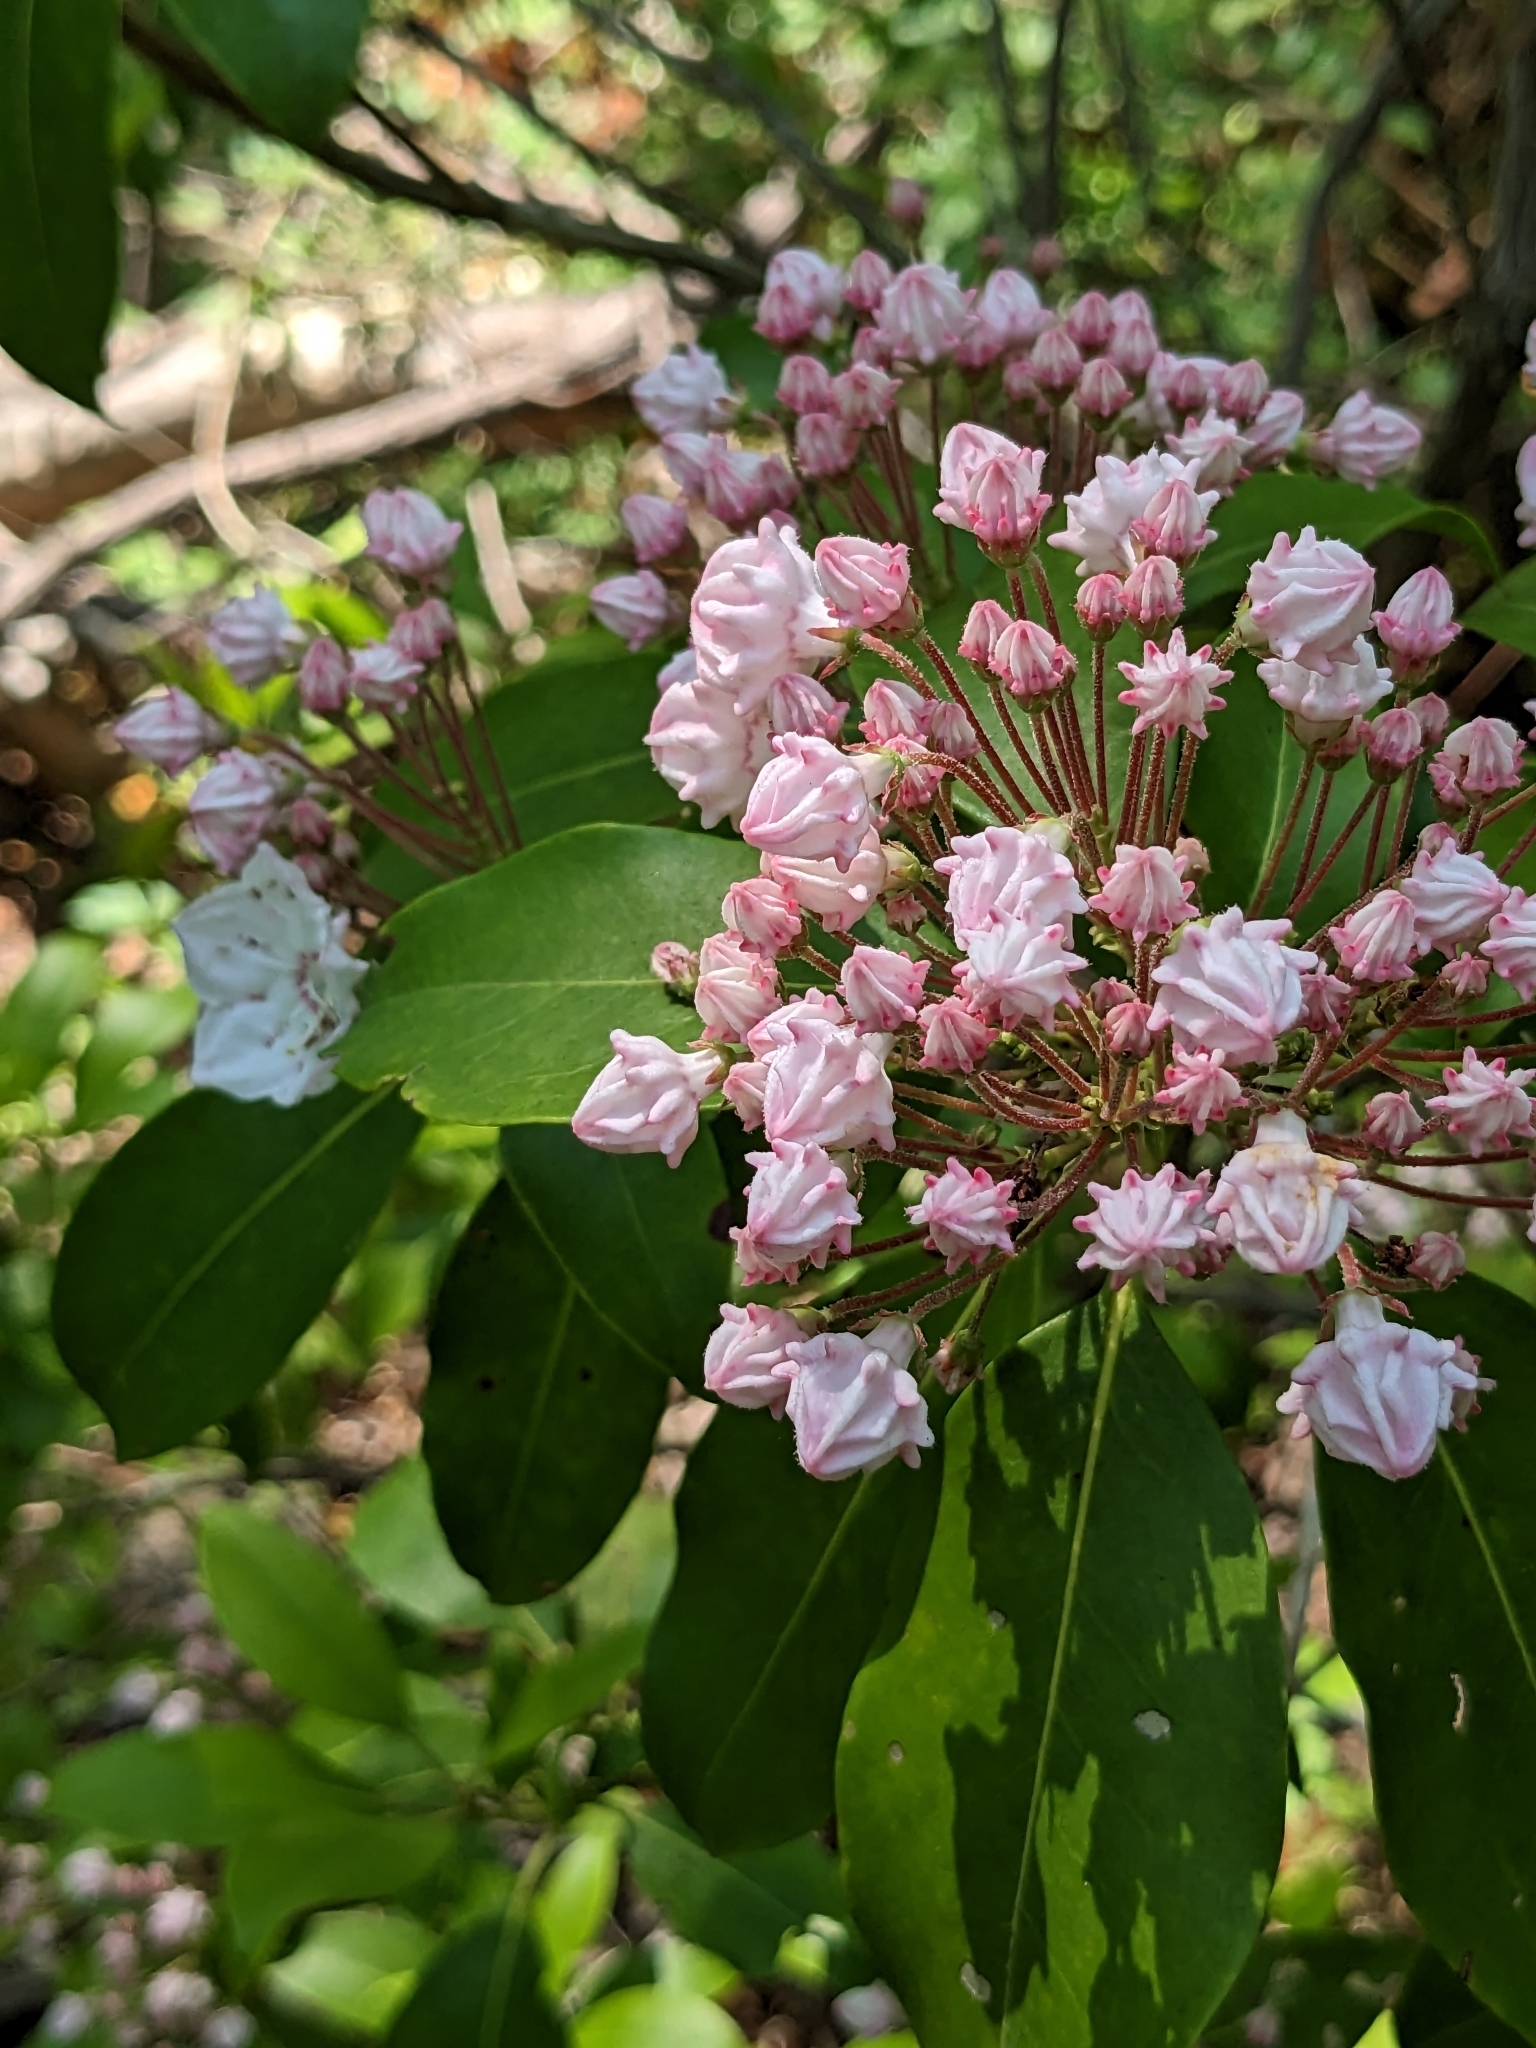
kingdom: Plantae
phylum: Tracheophyta
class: Magnoliopsida
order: Ericales
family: Ericaceae
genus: Kalmia
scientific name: Kalmia latifolia
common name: Mountain-laurel
